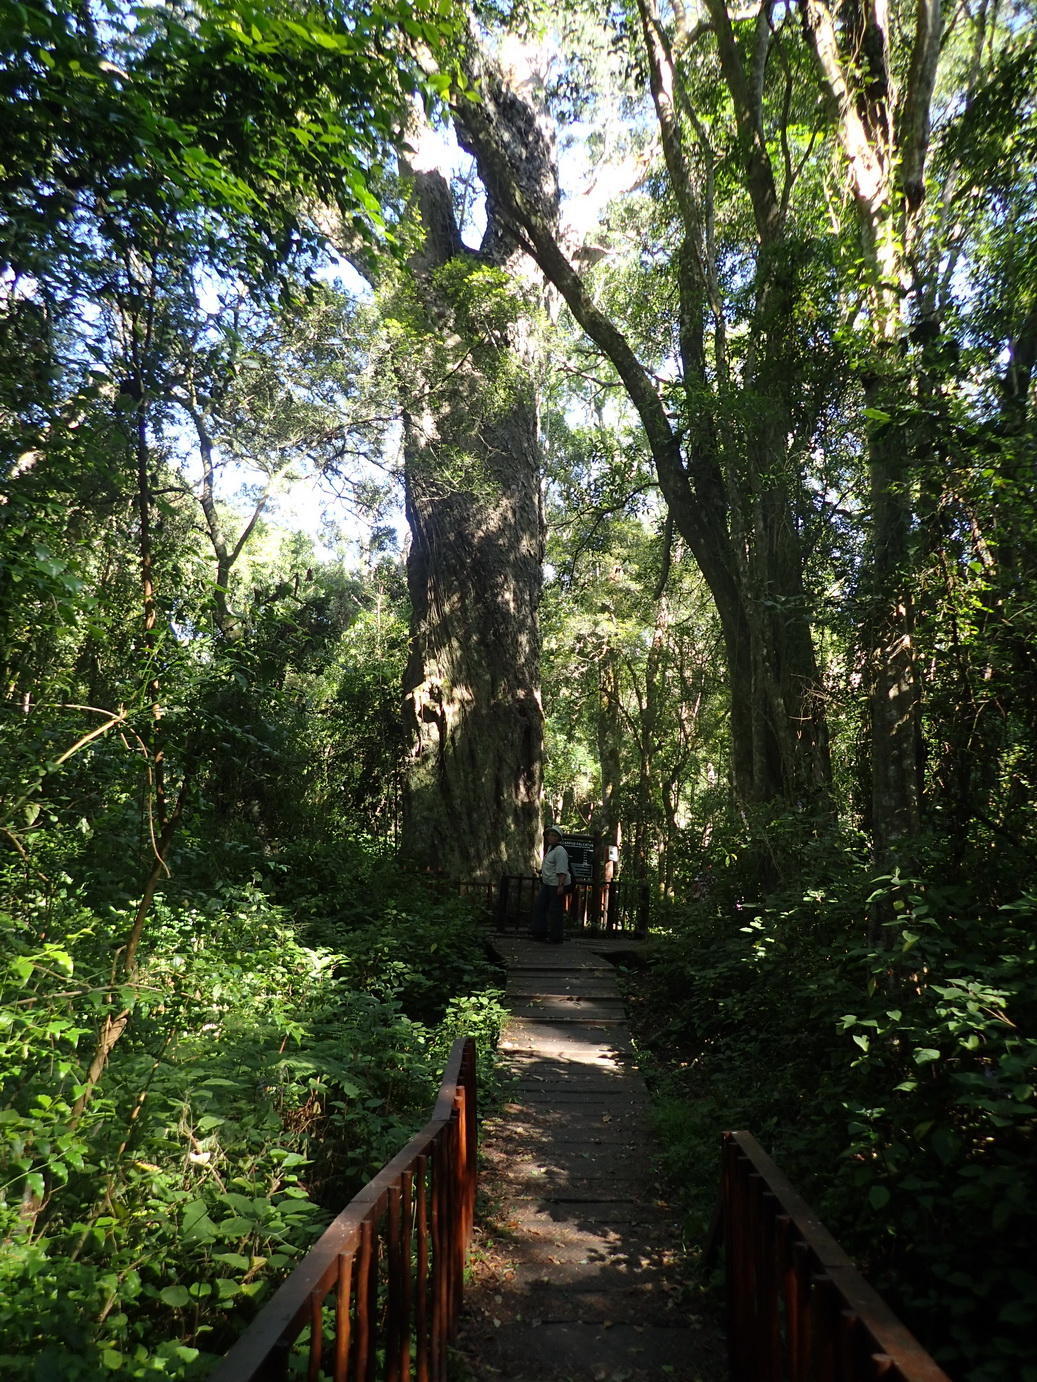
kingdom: Plantae
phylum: Tracheophyta
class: Pinopsida
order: Pinales
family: Podocarpaceae
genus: Afrocarpus
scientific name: Afrocarpus falcatus
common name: Bastard yellowwood
